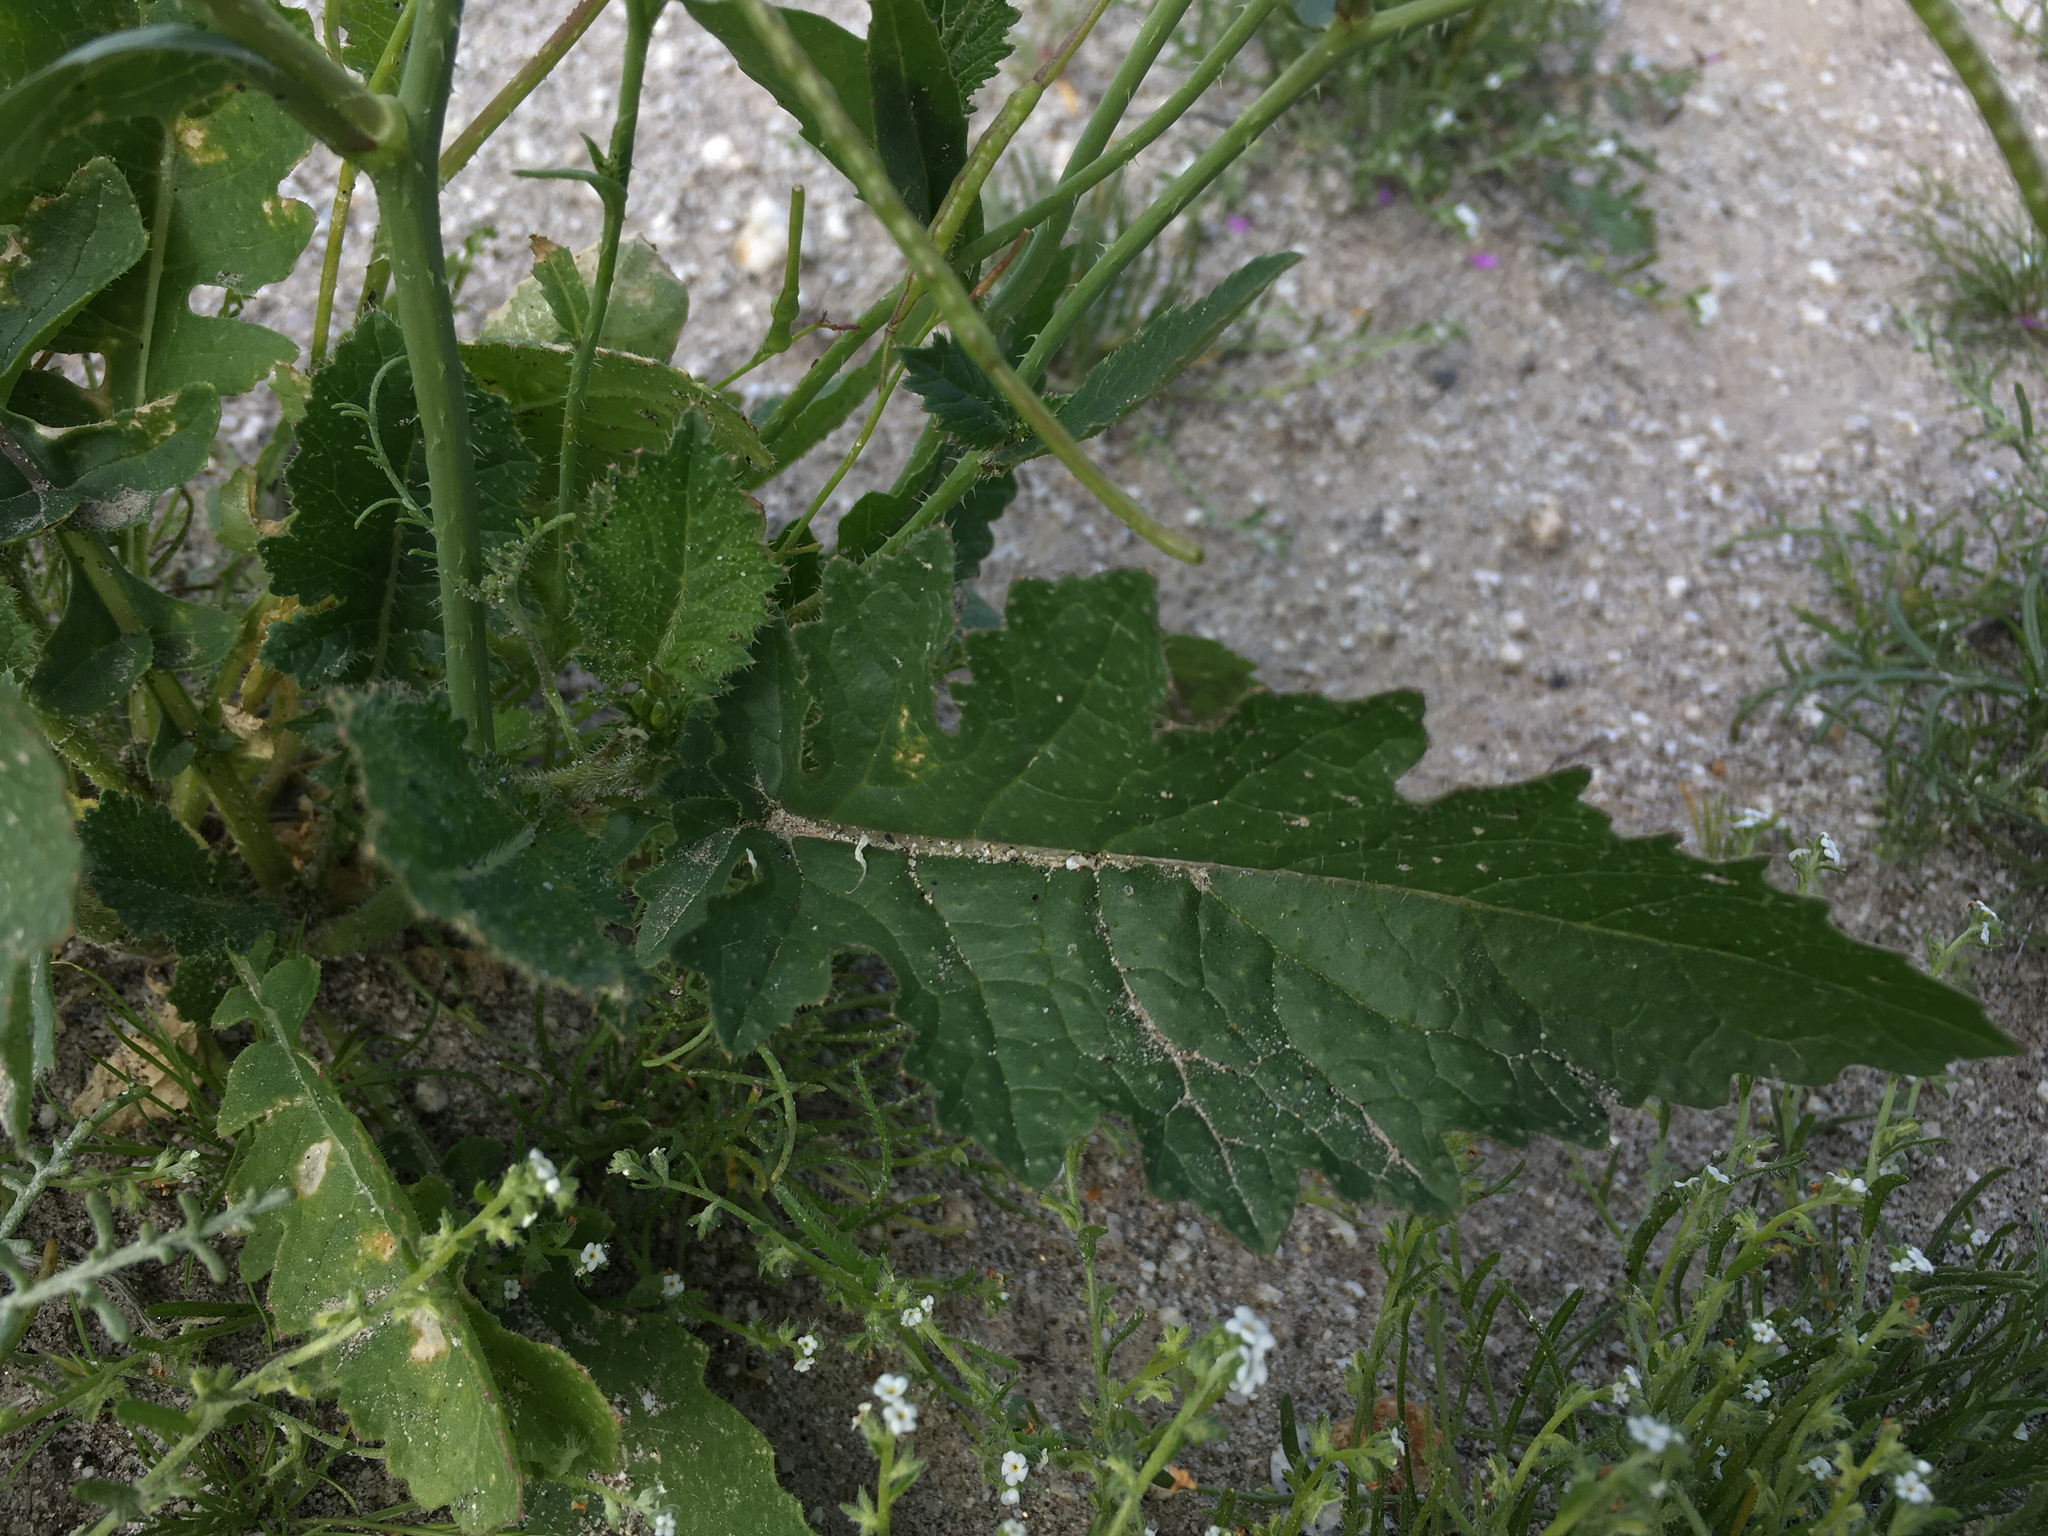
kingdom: Plantae
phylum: Tracheophyta
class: Magnoliopsida
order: Brassicales
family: Brassicaceae
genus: Brassica
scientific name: Brassica tournefortii
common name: Pale cabbage
